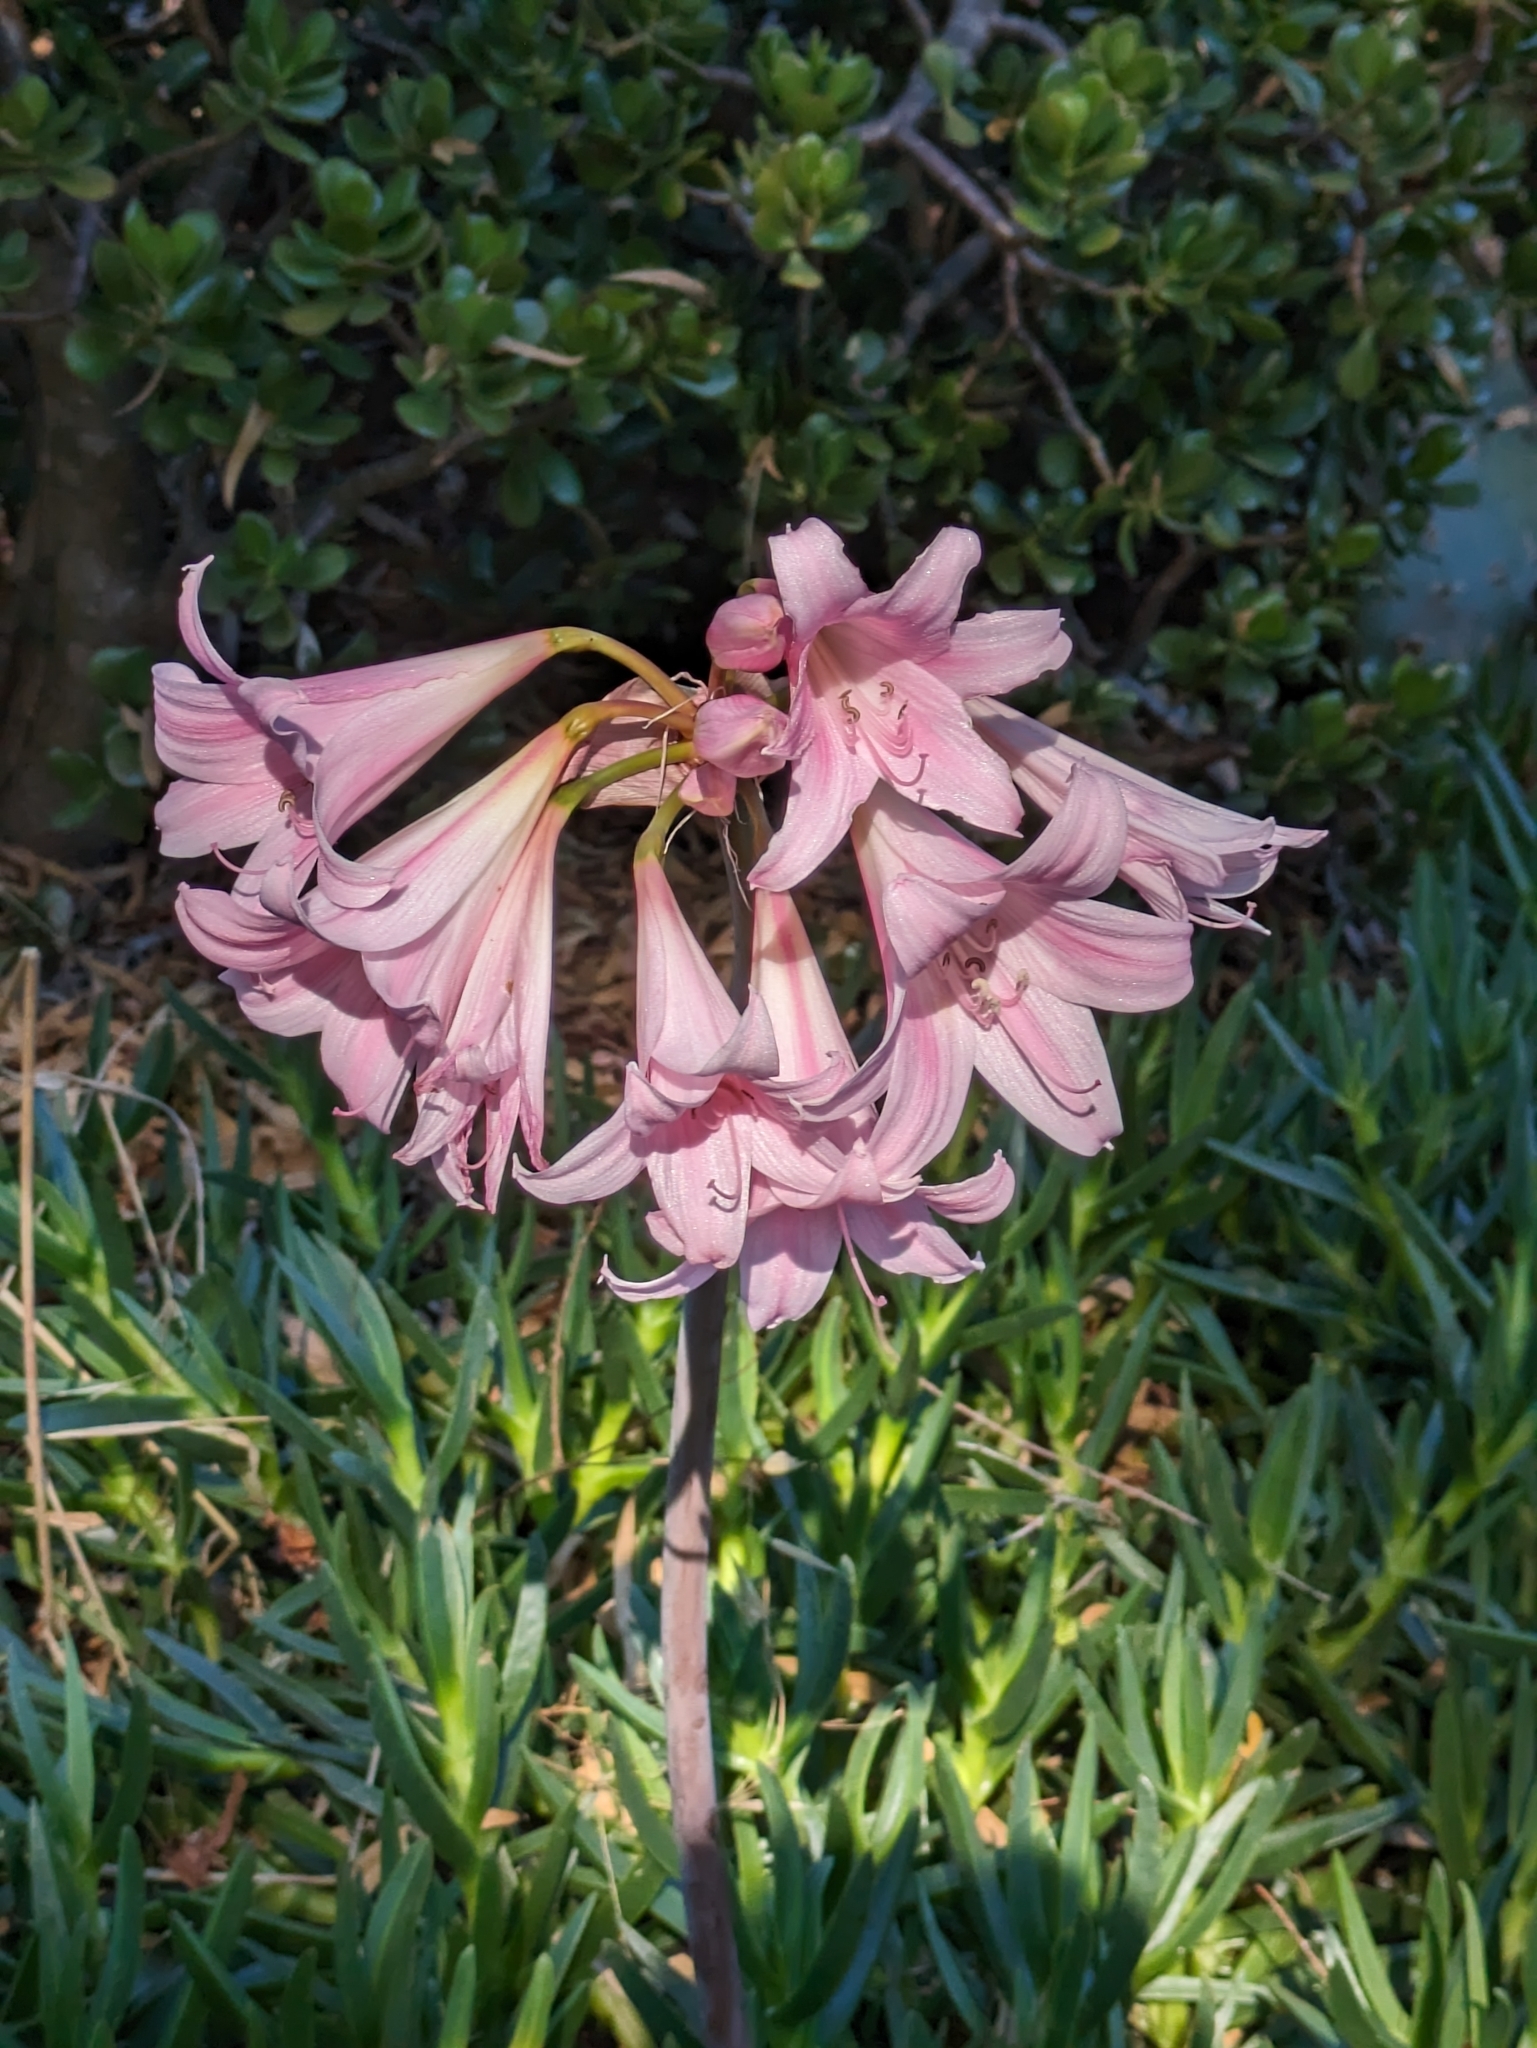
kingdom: Plantae
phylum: Tracheophyta
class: Liliopsida
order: Asparagales
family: Amaryllidaceae
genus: Amaryllis
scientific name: Amaryllis belladonna
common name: Jersey lily
